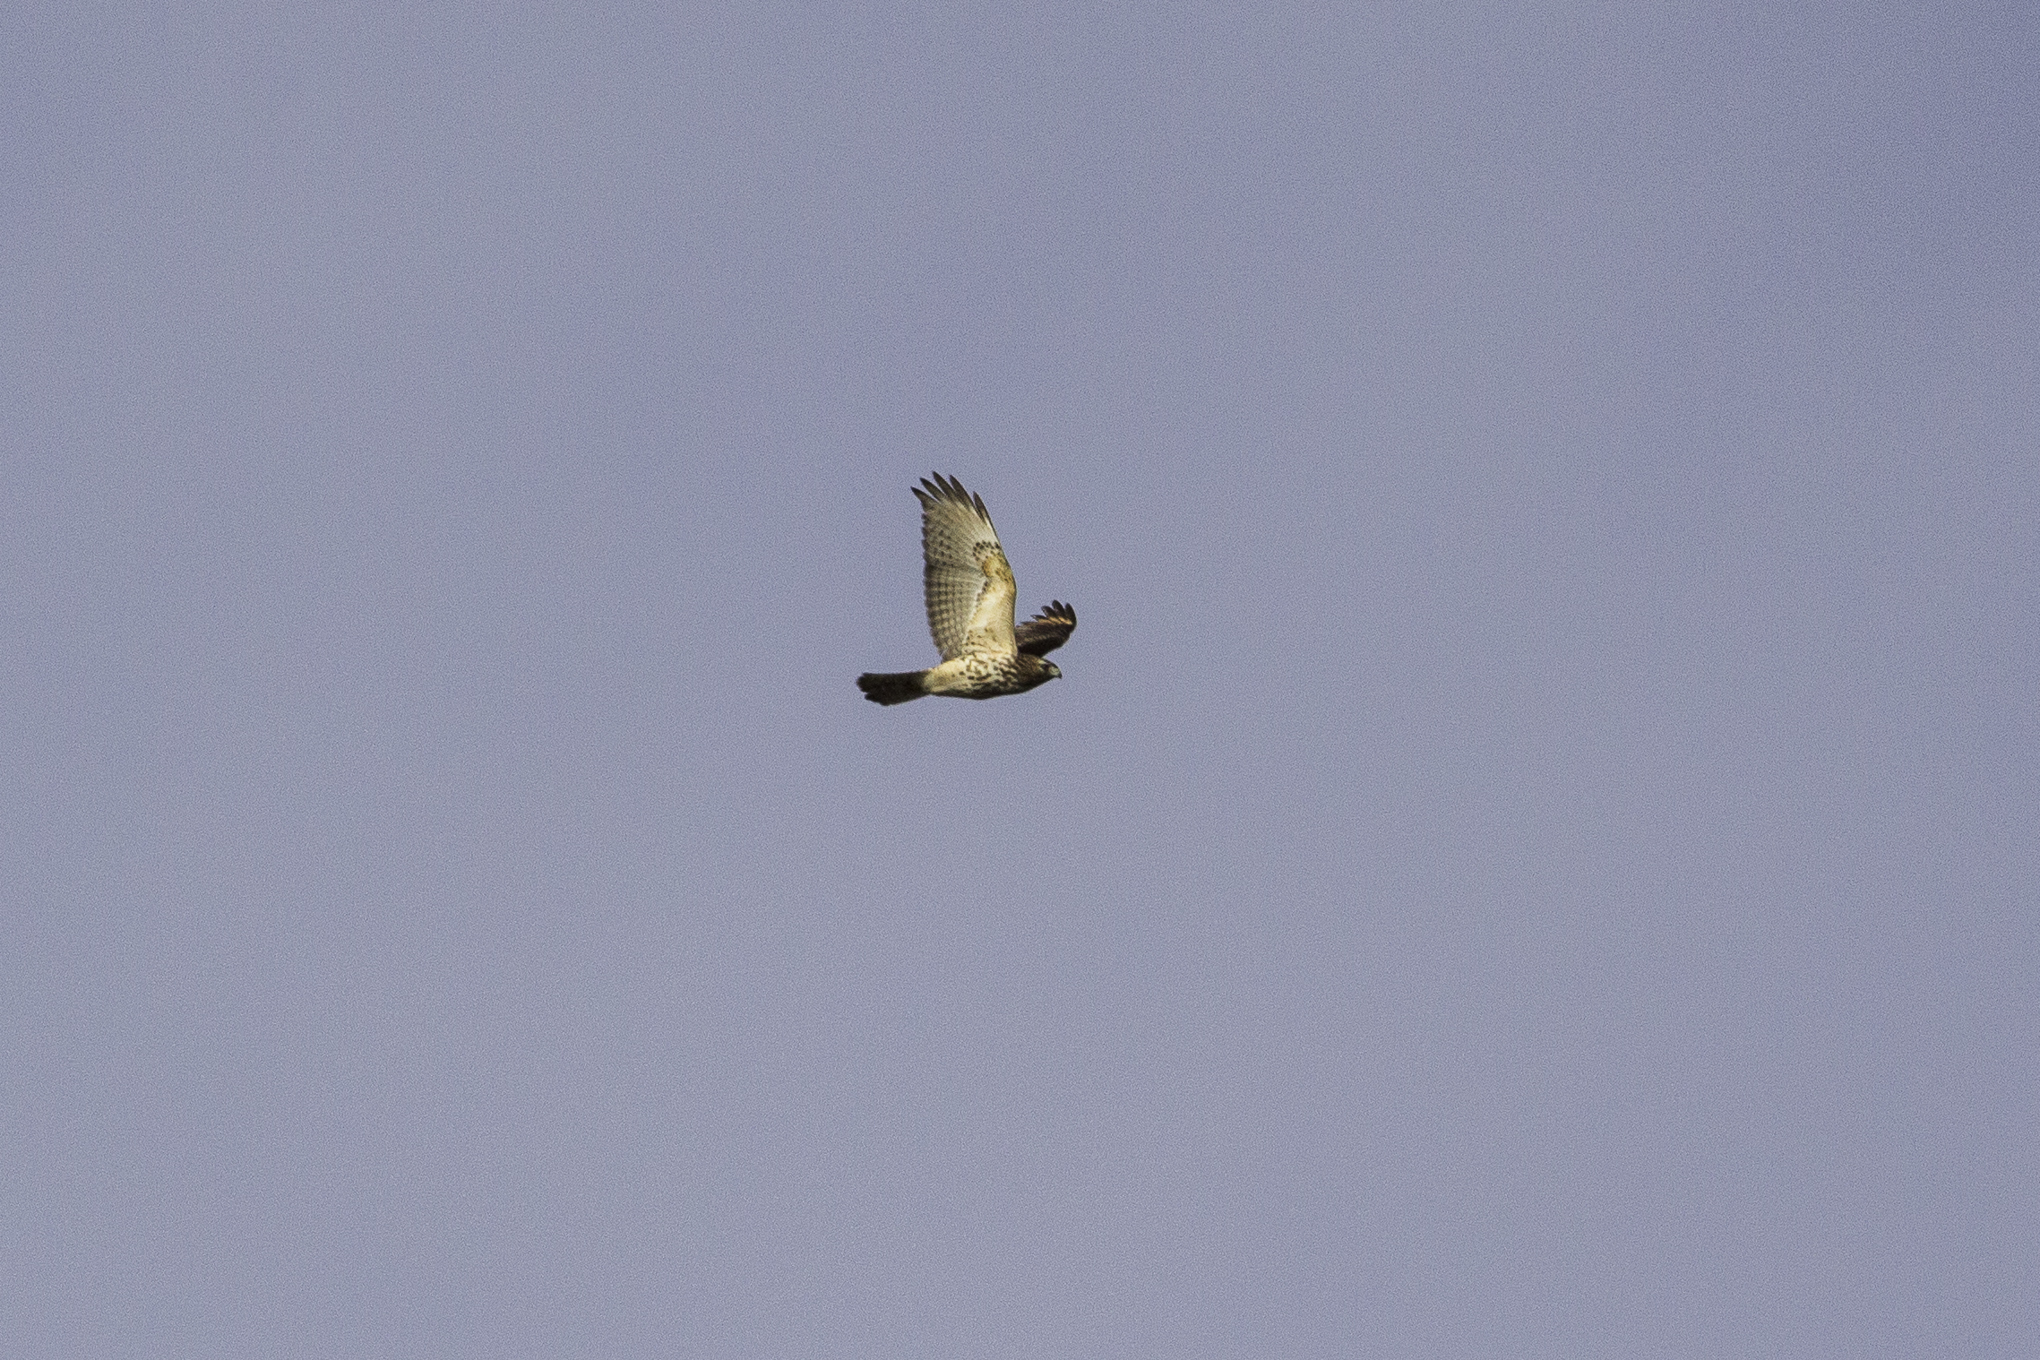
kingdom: Animalia
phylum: Chordata
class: Aves
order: Accipitriformes
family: Accipitridae
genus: Buteo
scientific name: Buteo lineatus
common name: Red-shouldered hawk
